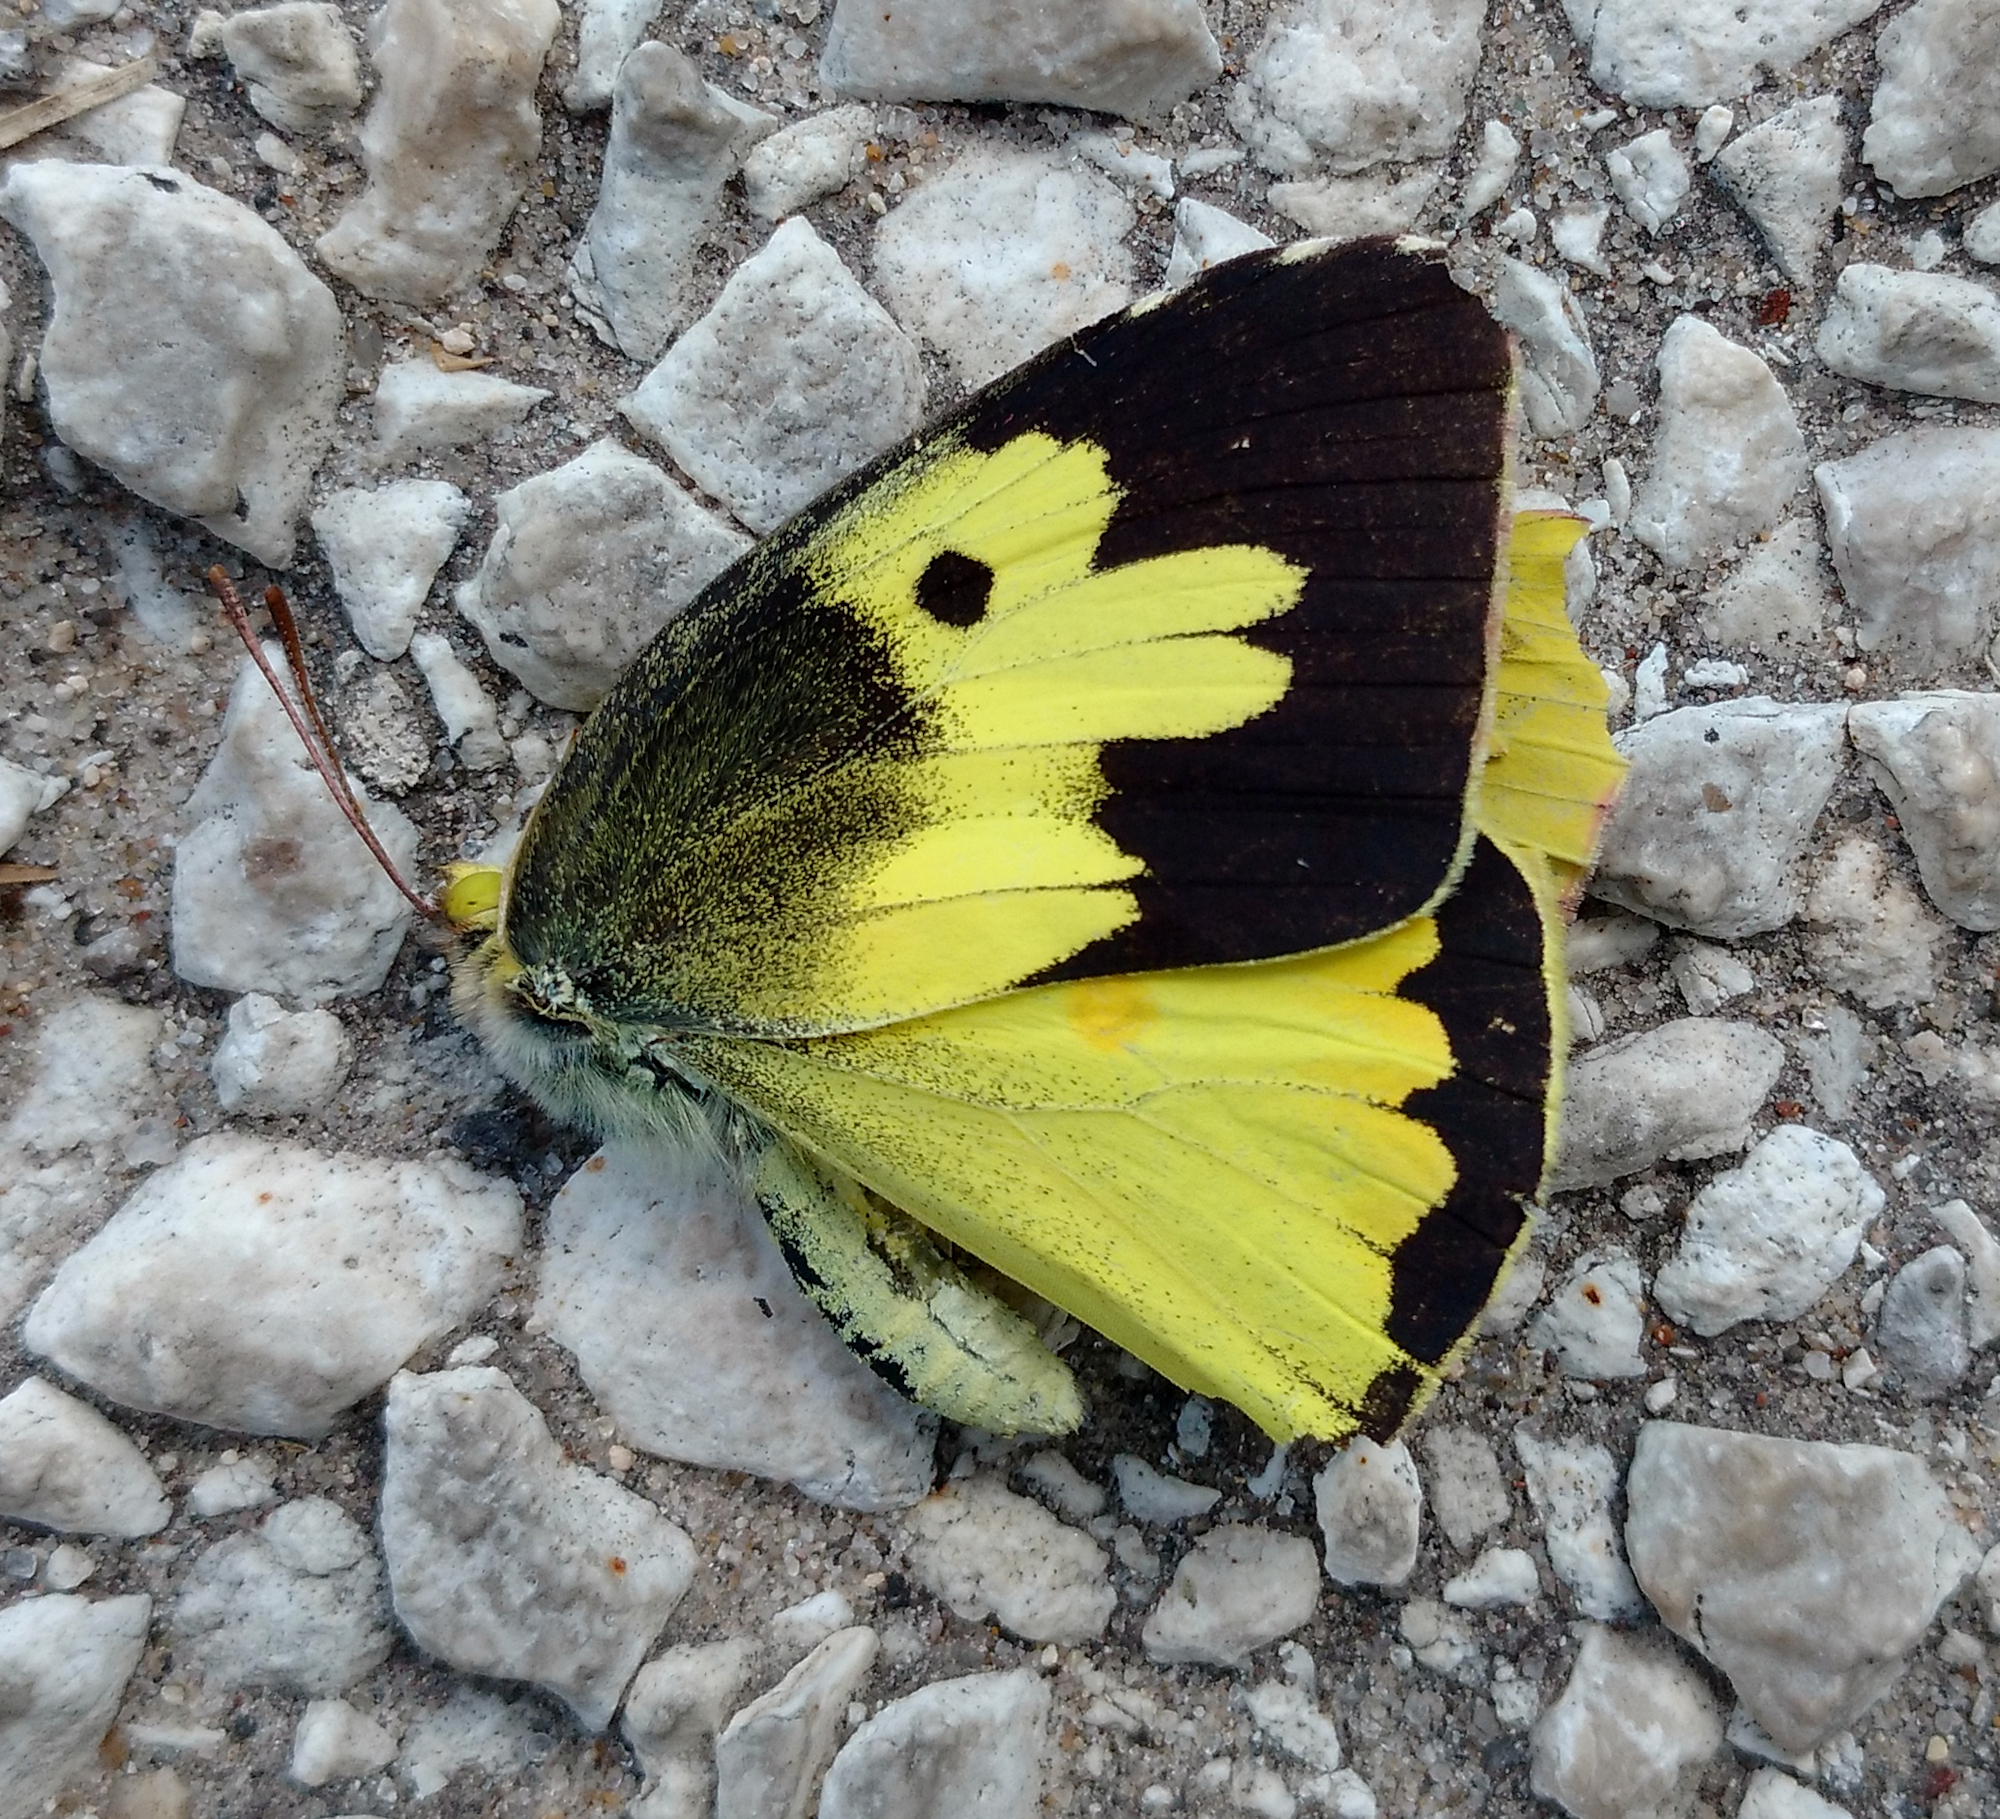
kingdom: Animalia
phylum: Arthropoda
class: Insecta
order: Lepidoptera
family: Pieridae
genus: Zerene
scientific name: Zerene cesonia
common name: Southern dogface
